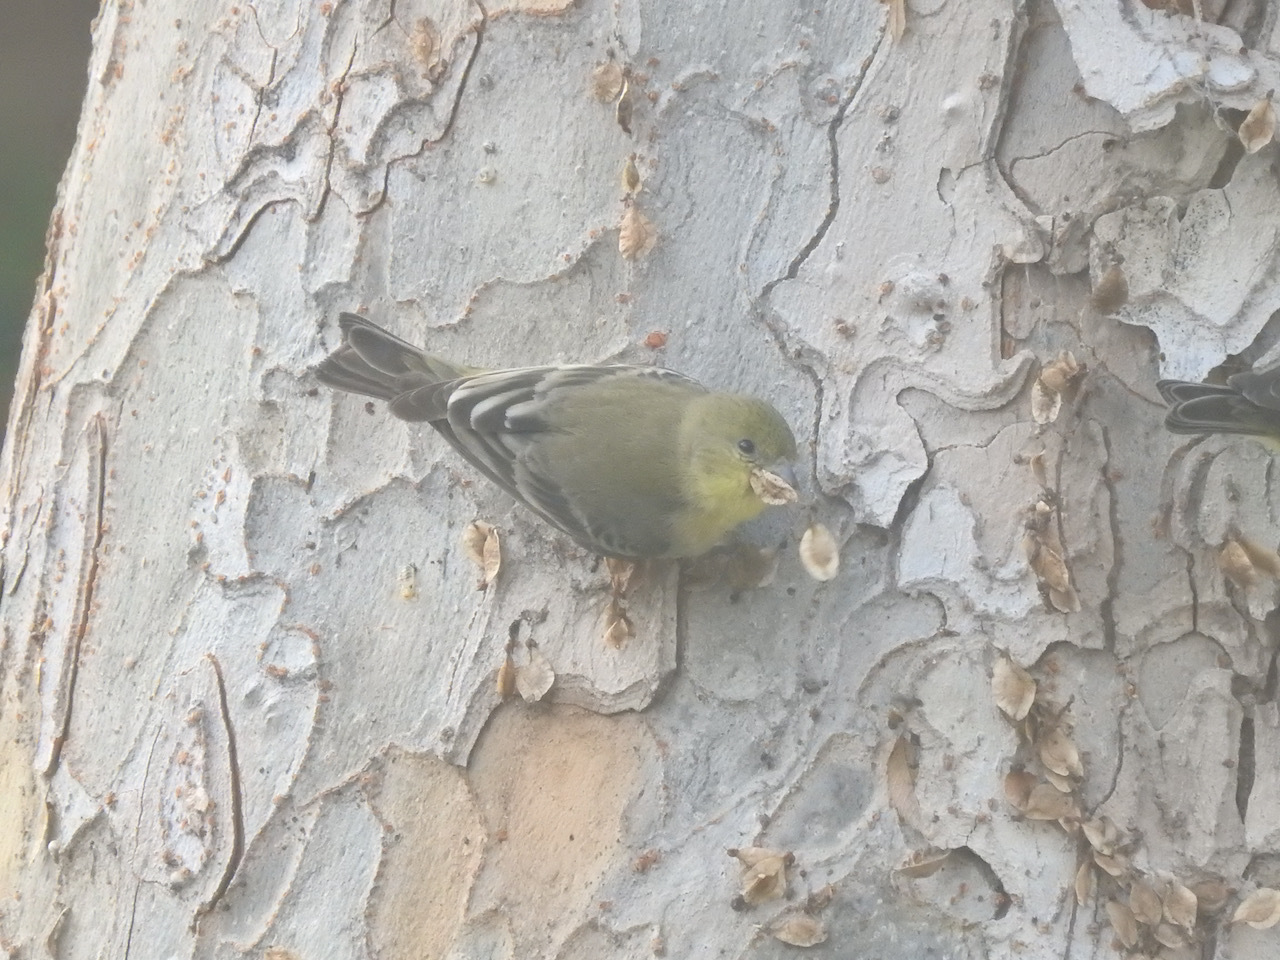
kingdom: Animalia
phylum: Chordata
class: Aves
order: Passeriformes
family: Fringillidae
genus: Spinus
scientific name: Spinus psaltria
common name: Lesser goldfinch
